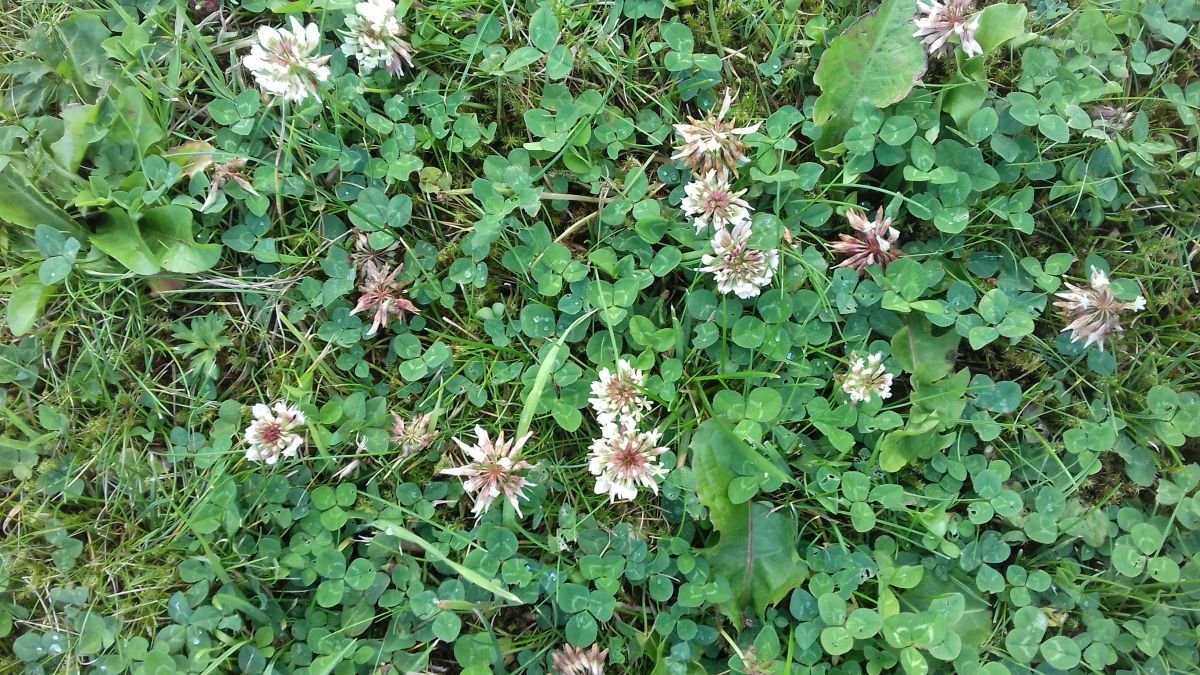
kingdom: Plantae
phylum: Tracheophyta
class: Magnoliopsida
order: Fabales
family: Fabaceae
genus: Trifolium
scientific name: Trifolium repens
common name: White clover
